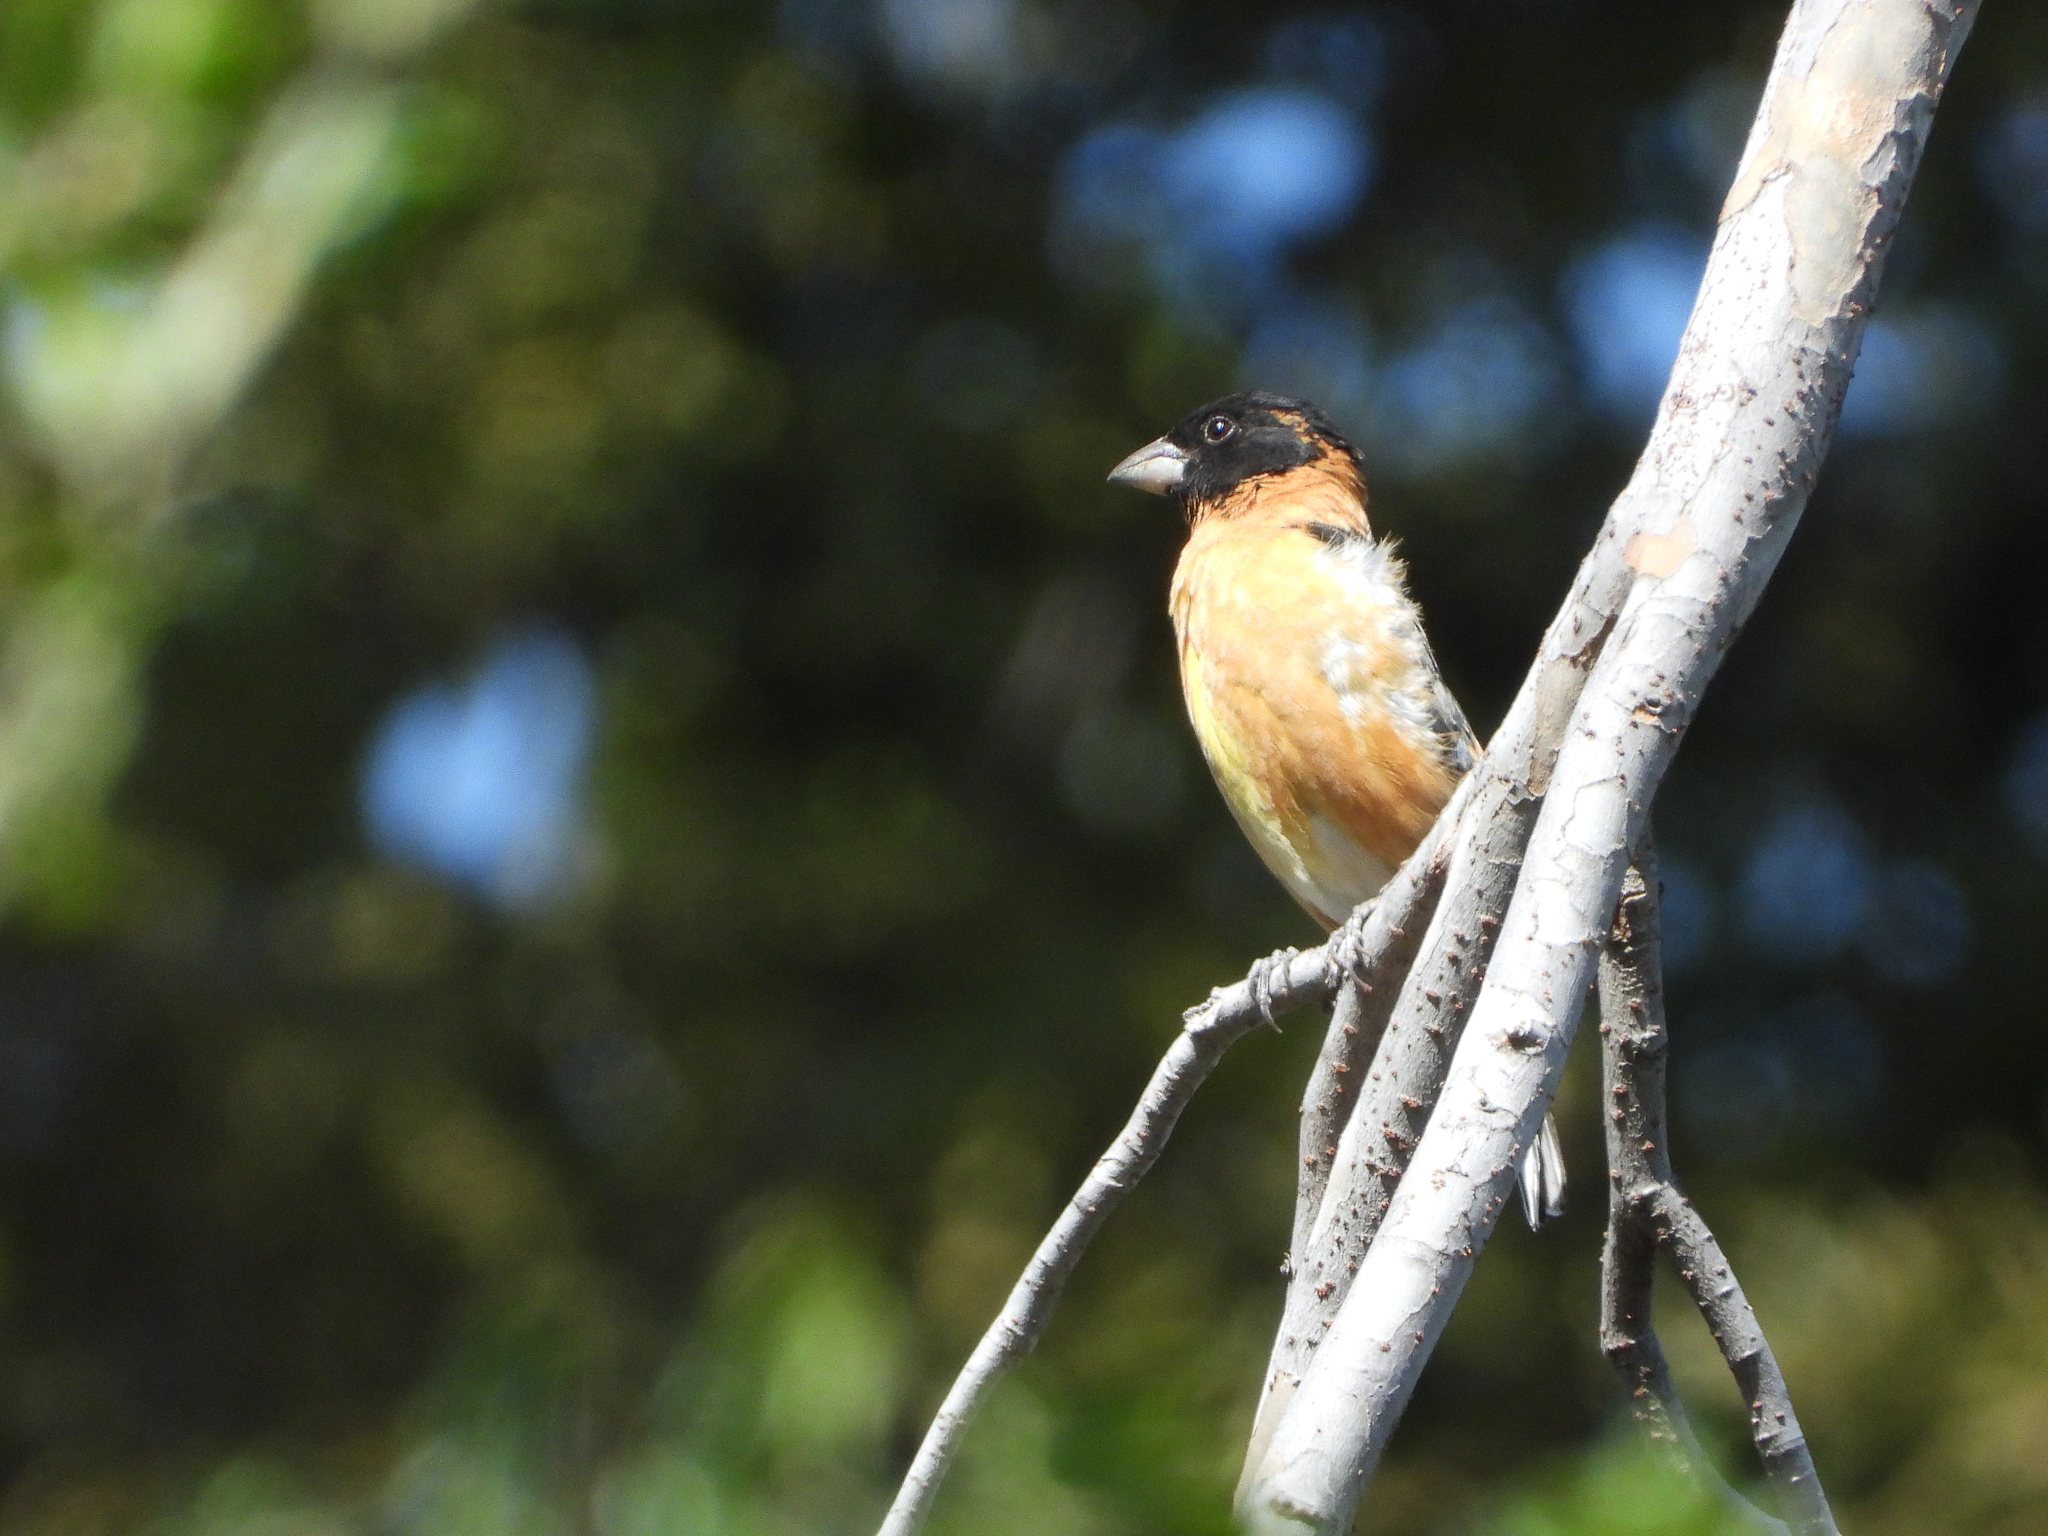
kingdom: Animalia
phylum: Chordata
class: Aves
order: Passeriformes
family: Cardinalidae
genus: Pheucticus
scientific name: Pheucticus melanocephalus
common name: Black-headed grosbeak
